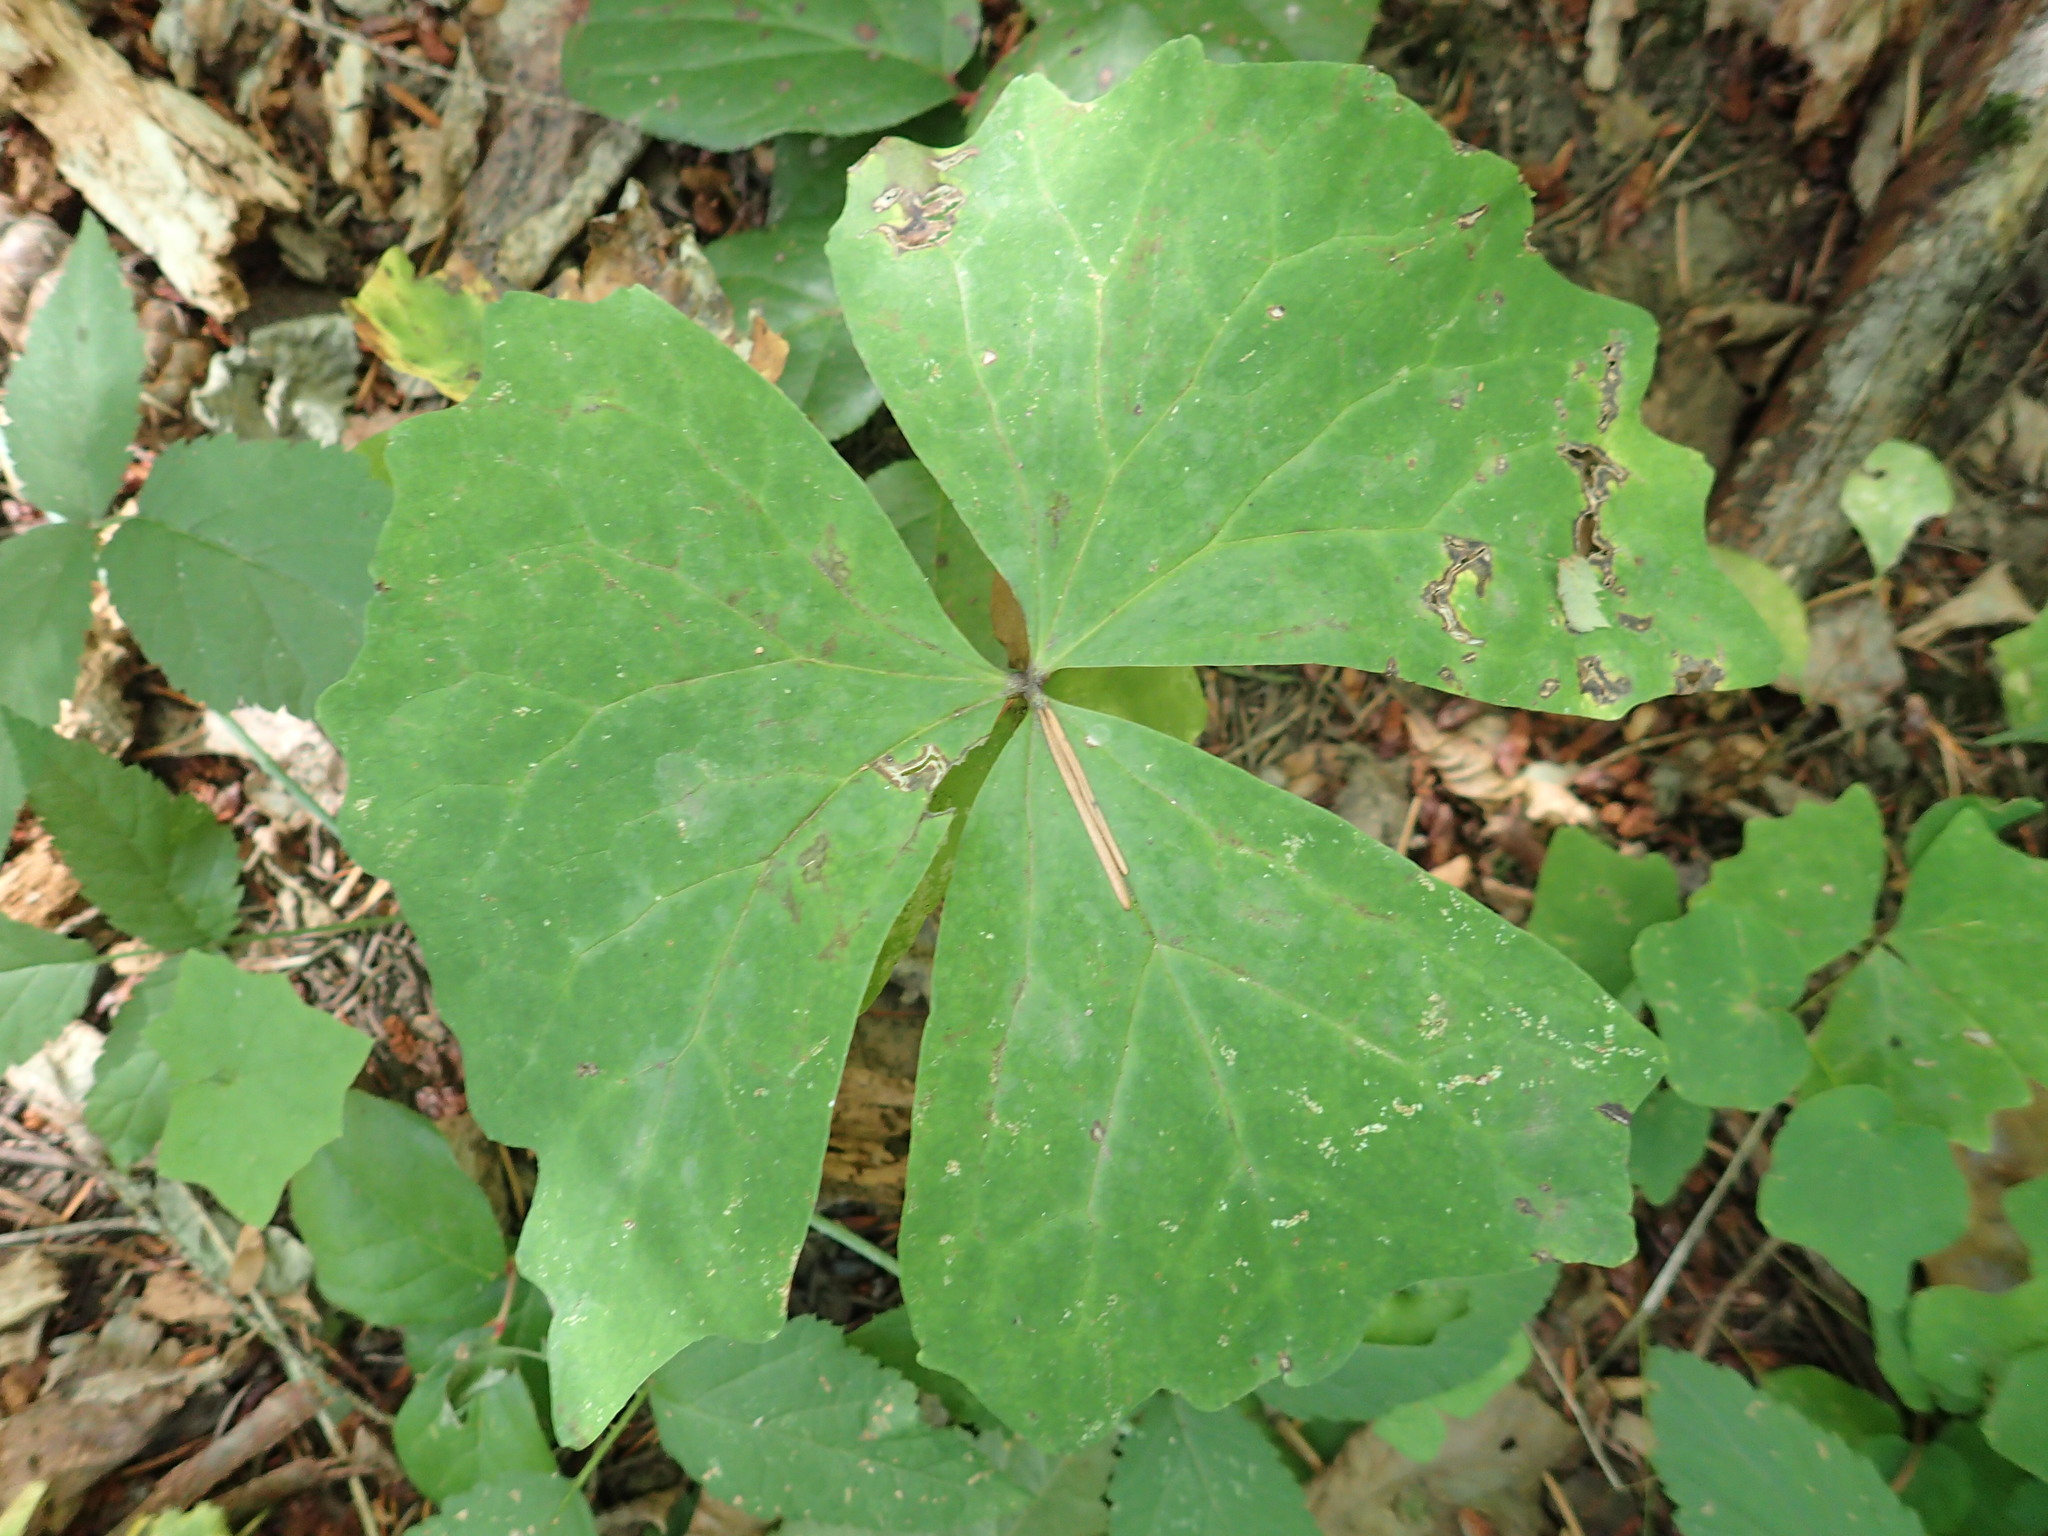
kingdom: Plantae
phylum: Tracheophyta
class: Magnoliopsida
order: Ranunculales
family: Berberidaceae
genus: Achlys
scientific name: Achlys triphylla
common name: Vanilla-leaf
